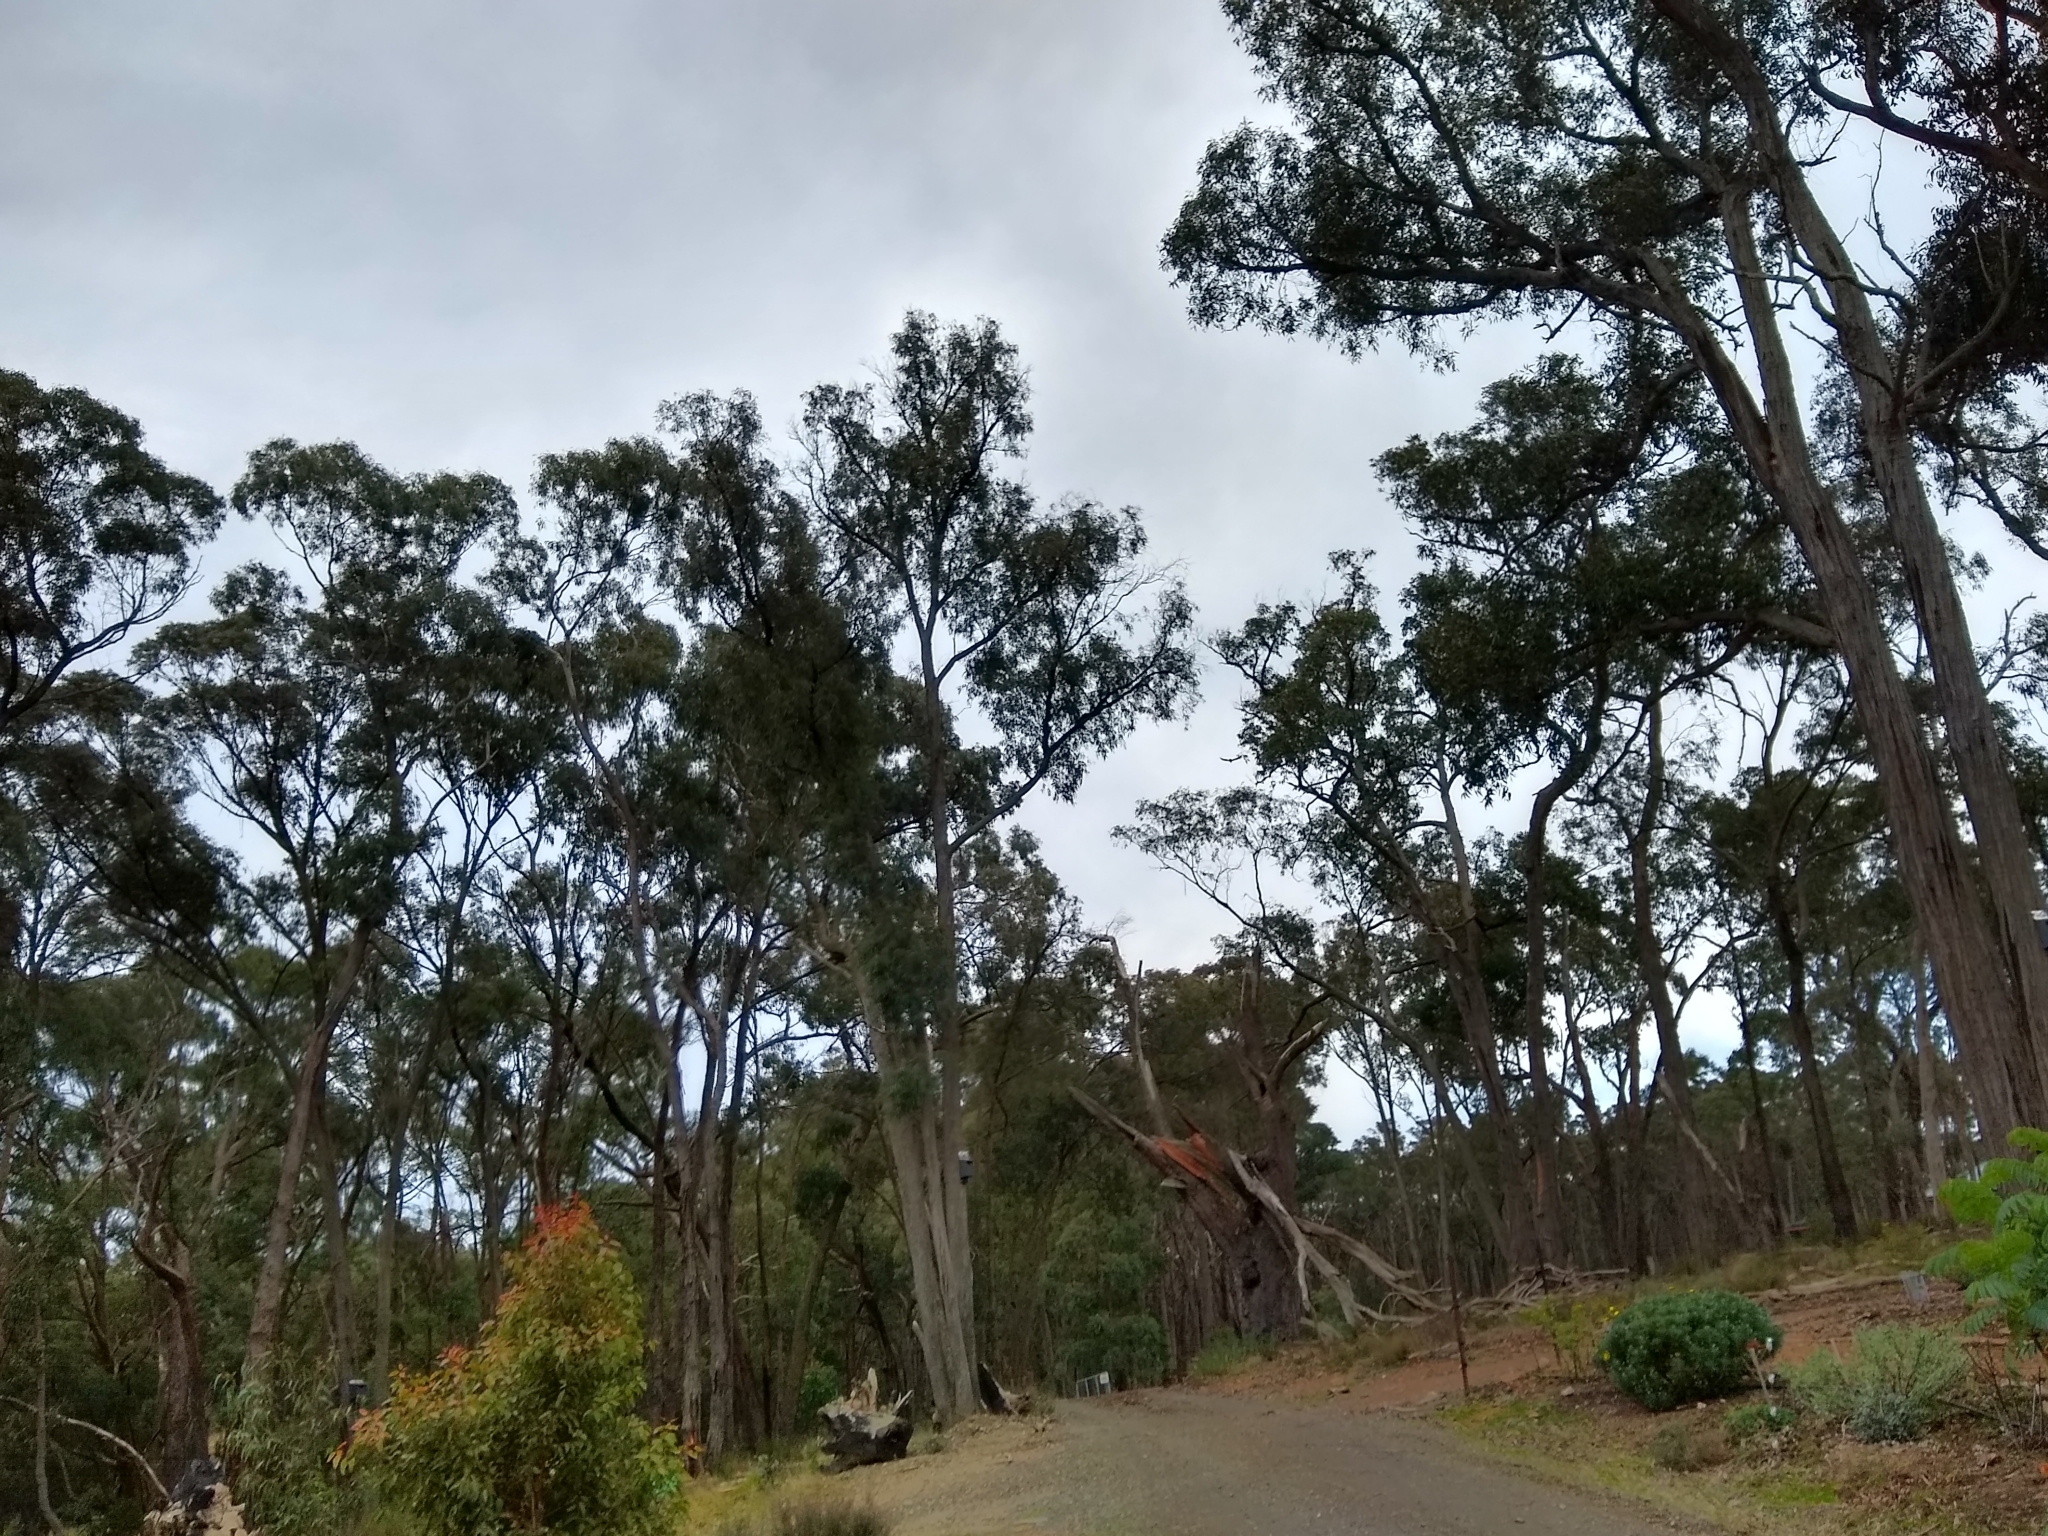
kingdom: Animalia
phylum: Chordata
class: Aves
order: Accipitriformes
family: Accipitridae
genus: Aquila
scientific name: Aquila audax
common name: Wedge-tailed eagle
